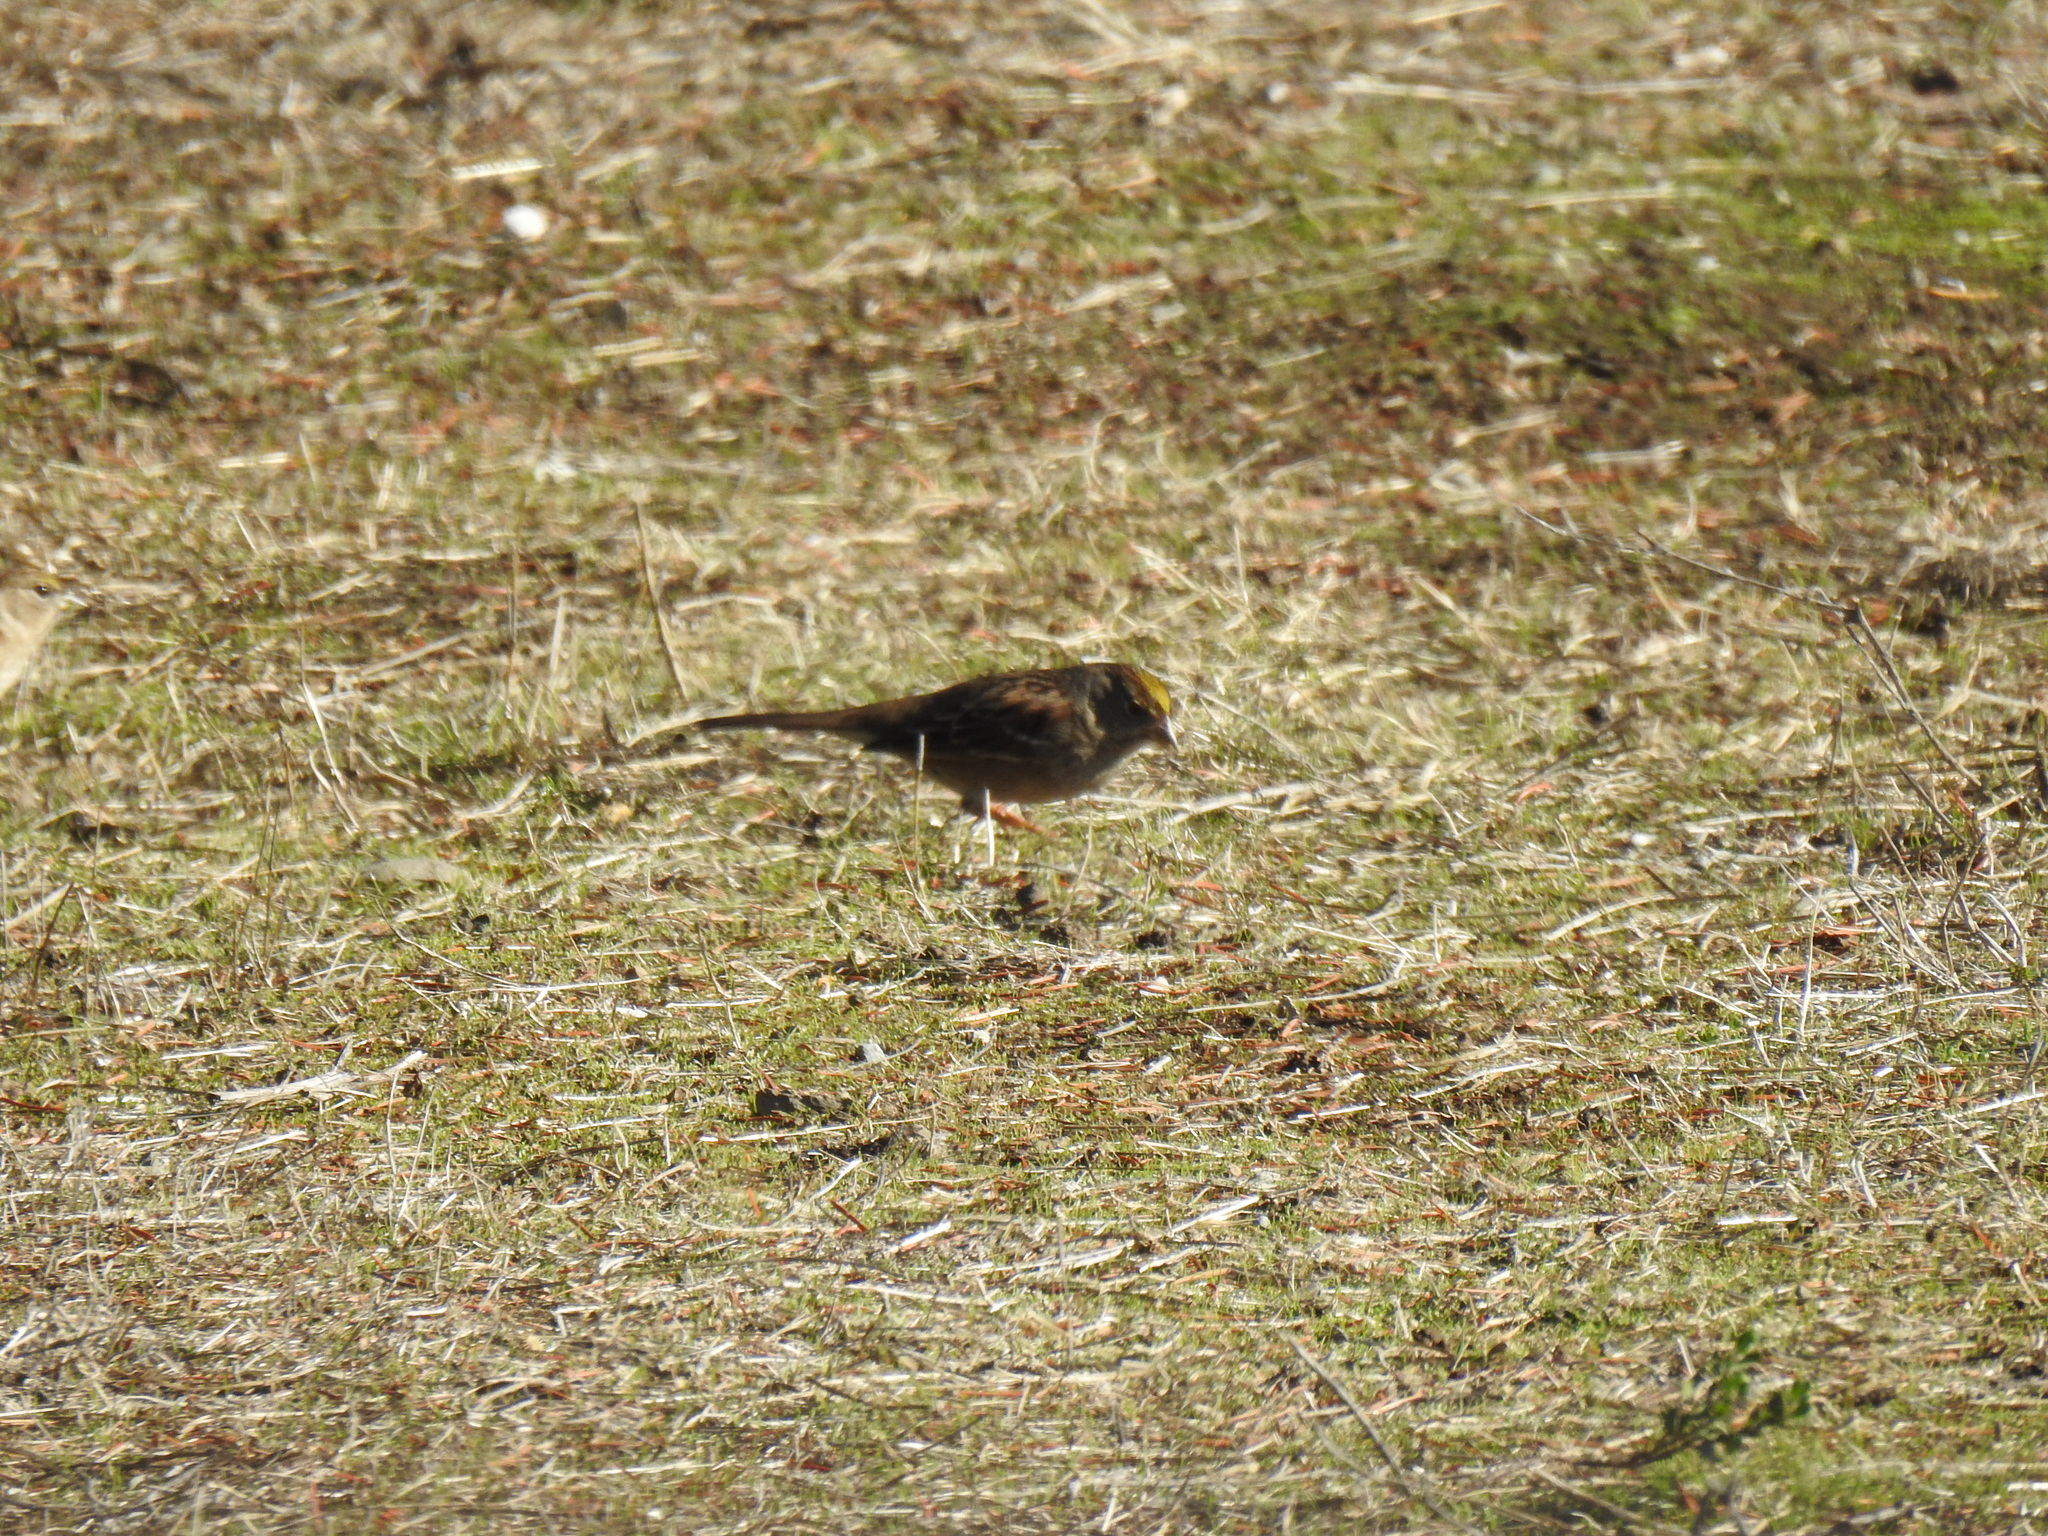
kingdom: Animalia
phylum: Chordata
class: Aves
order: Passeriformes
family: Passerellidae
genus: Zonotrichia
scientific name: Zonotrichia atricapilla
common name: Golden-crowned sparrow
